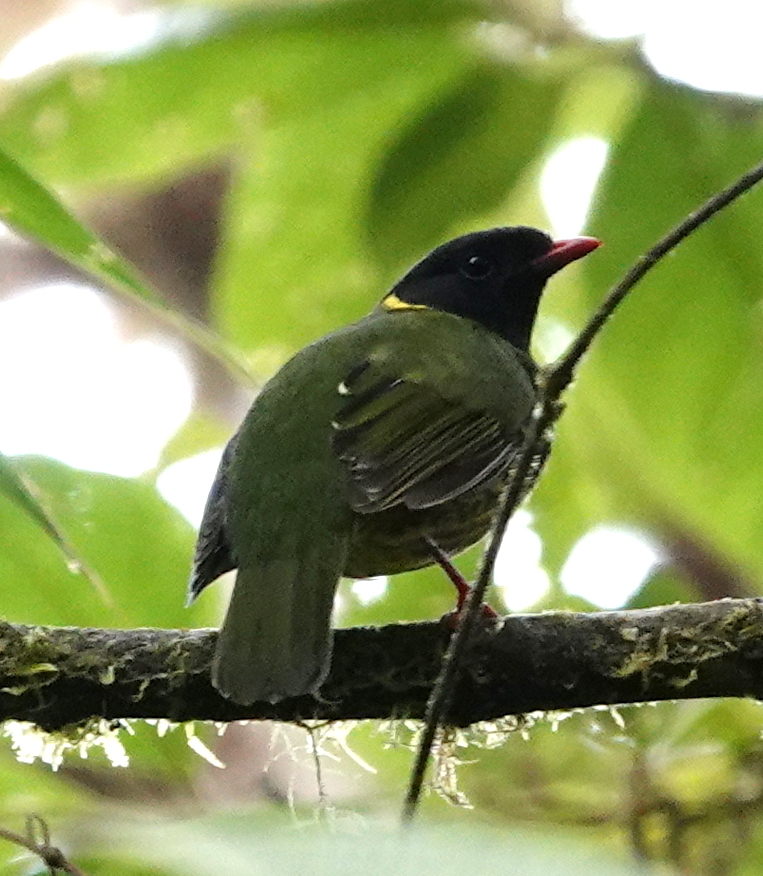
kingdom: Animalia
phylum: Chordata
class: Aves
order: Passeriformes
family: Cotingidae
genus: Pipreola
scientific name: Pipreola riefferii
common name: Green-and-black fruiteater
